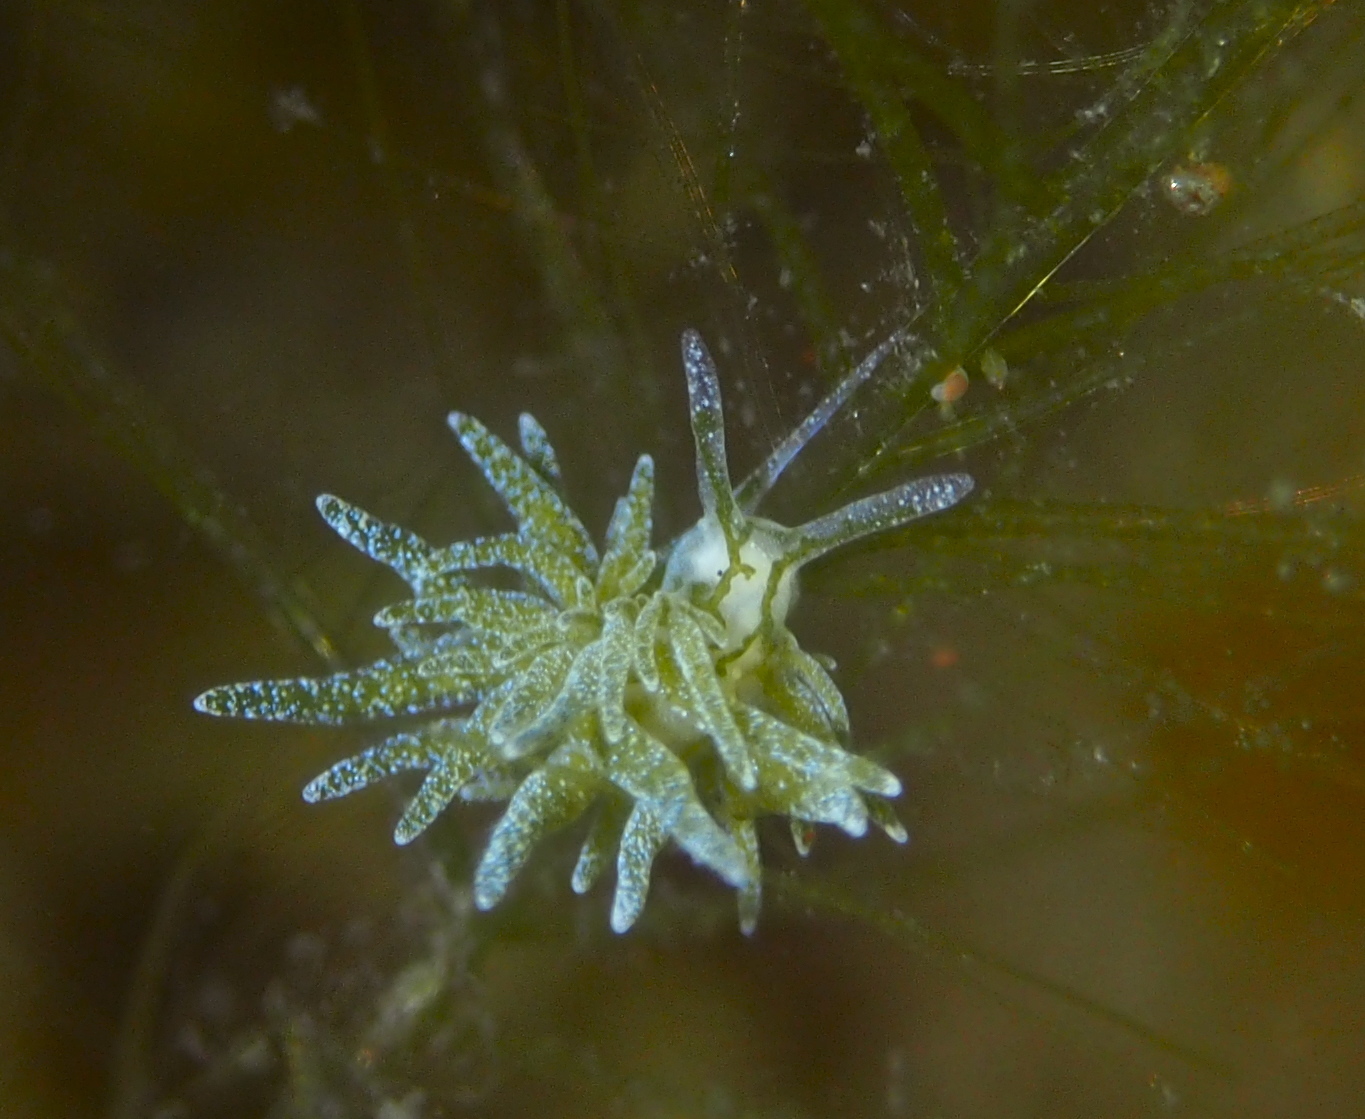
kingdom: Animalia
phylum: Mollusca
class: Gastropoda
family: Limapontiidae
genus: Placida
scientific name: Placida dendritica
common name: Dendritic nudibranch
